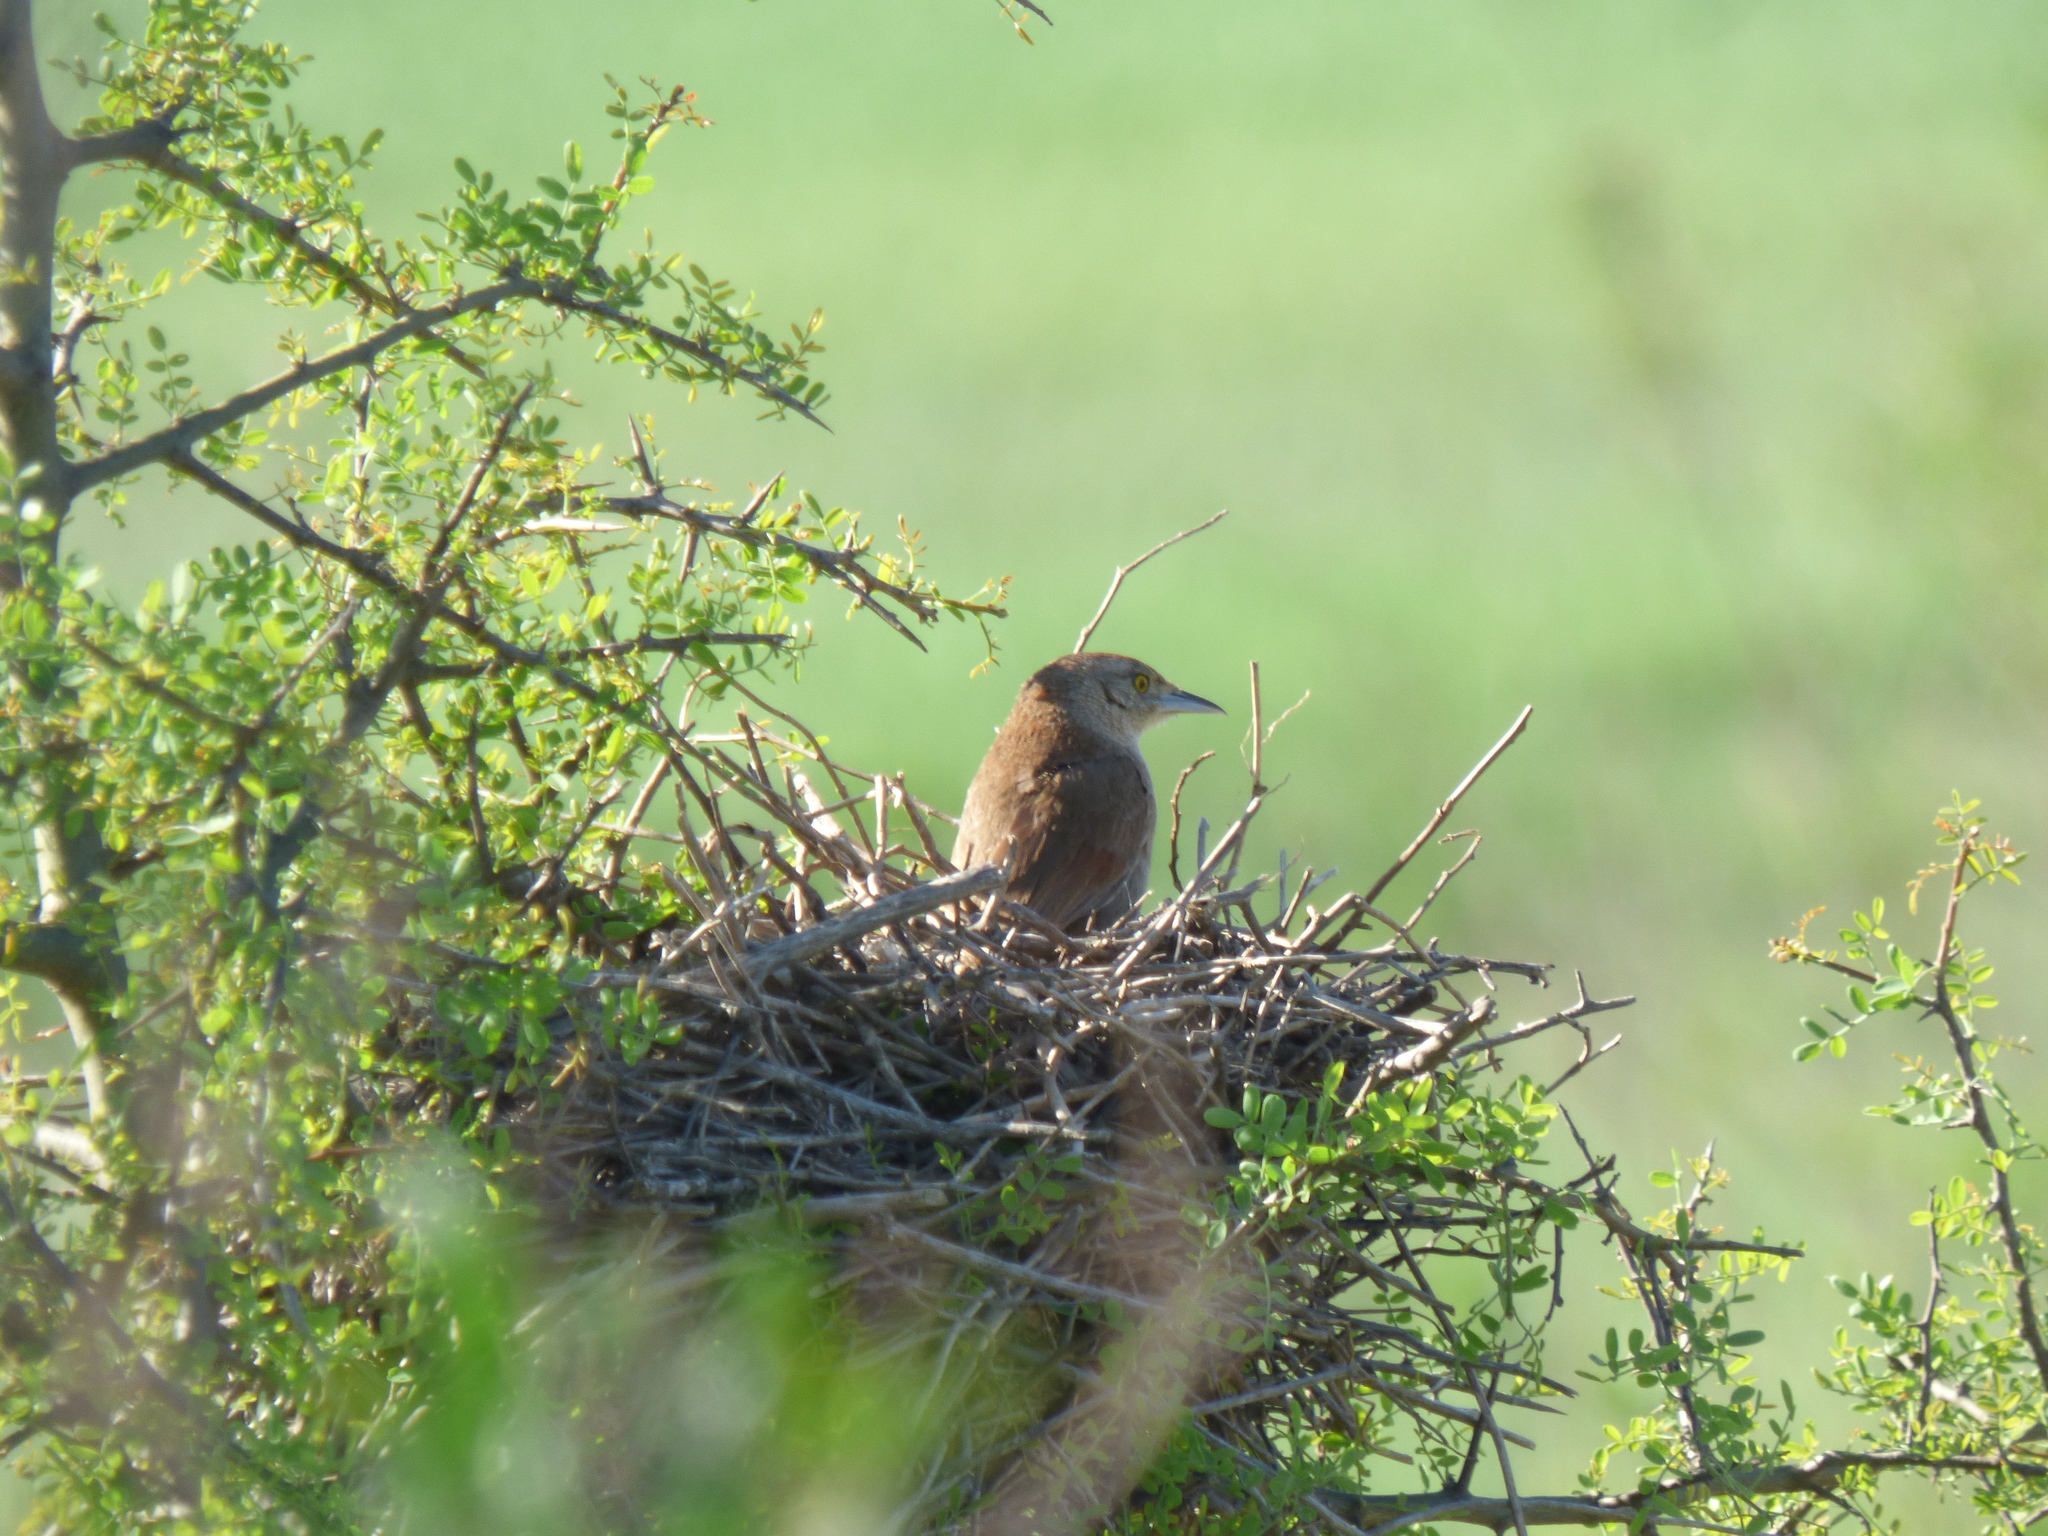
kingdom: Animalia
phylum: Chordata
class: Aves
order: Passeriformes
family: Furnariidae
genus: Phacellodomus
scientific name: Phacellodomus striaticollis
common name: Freckle-breasted thornbird
